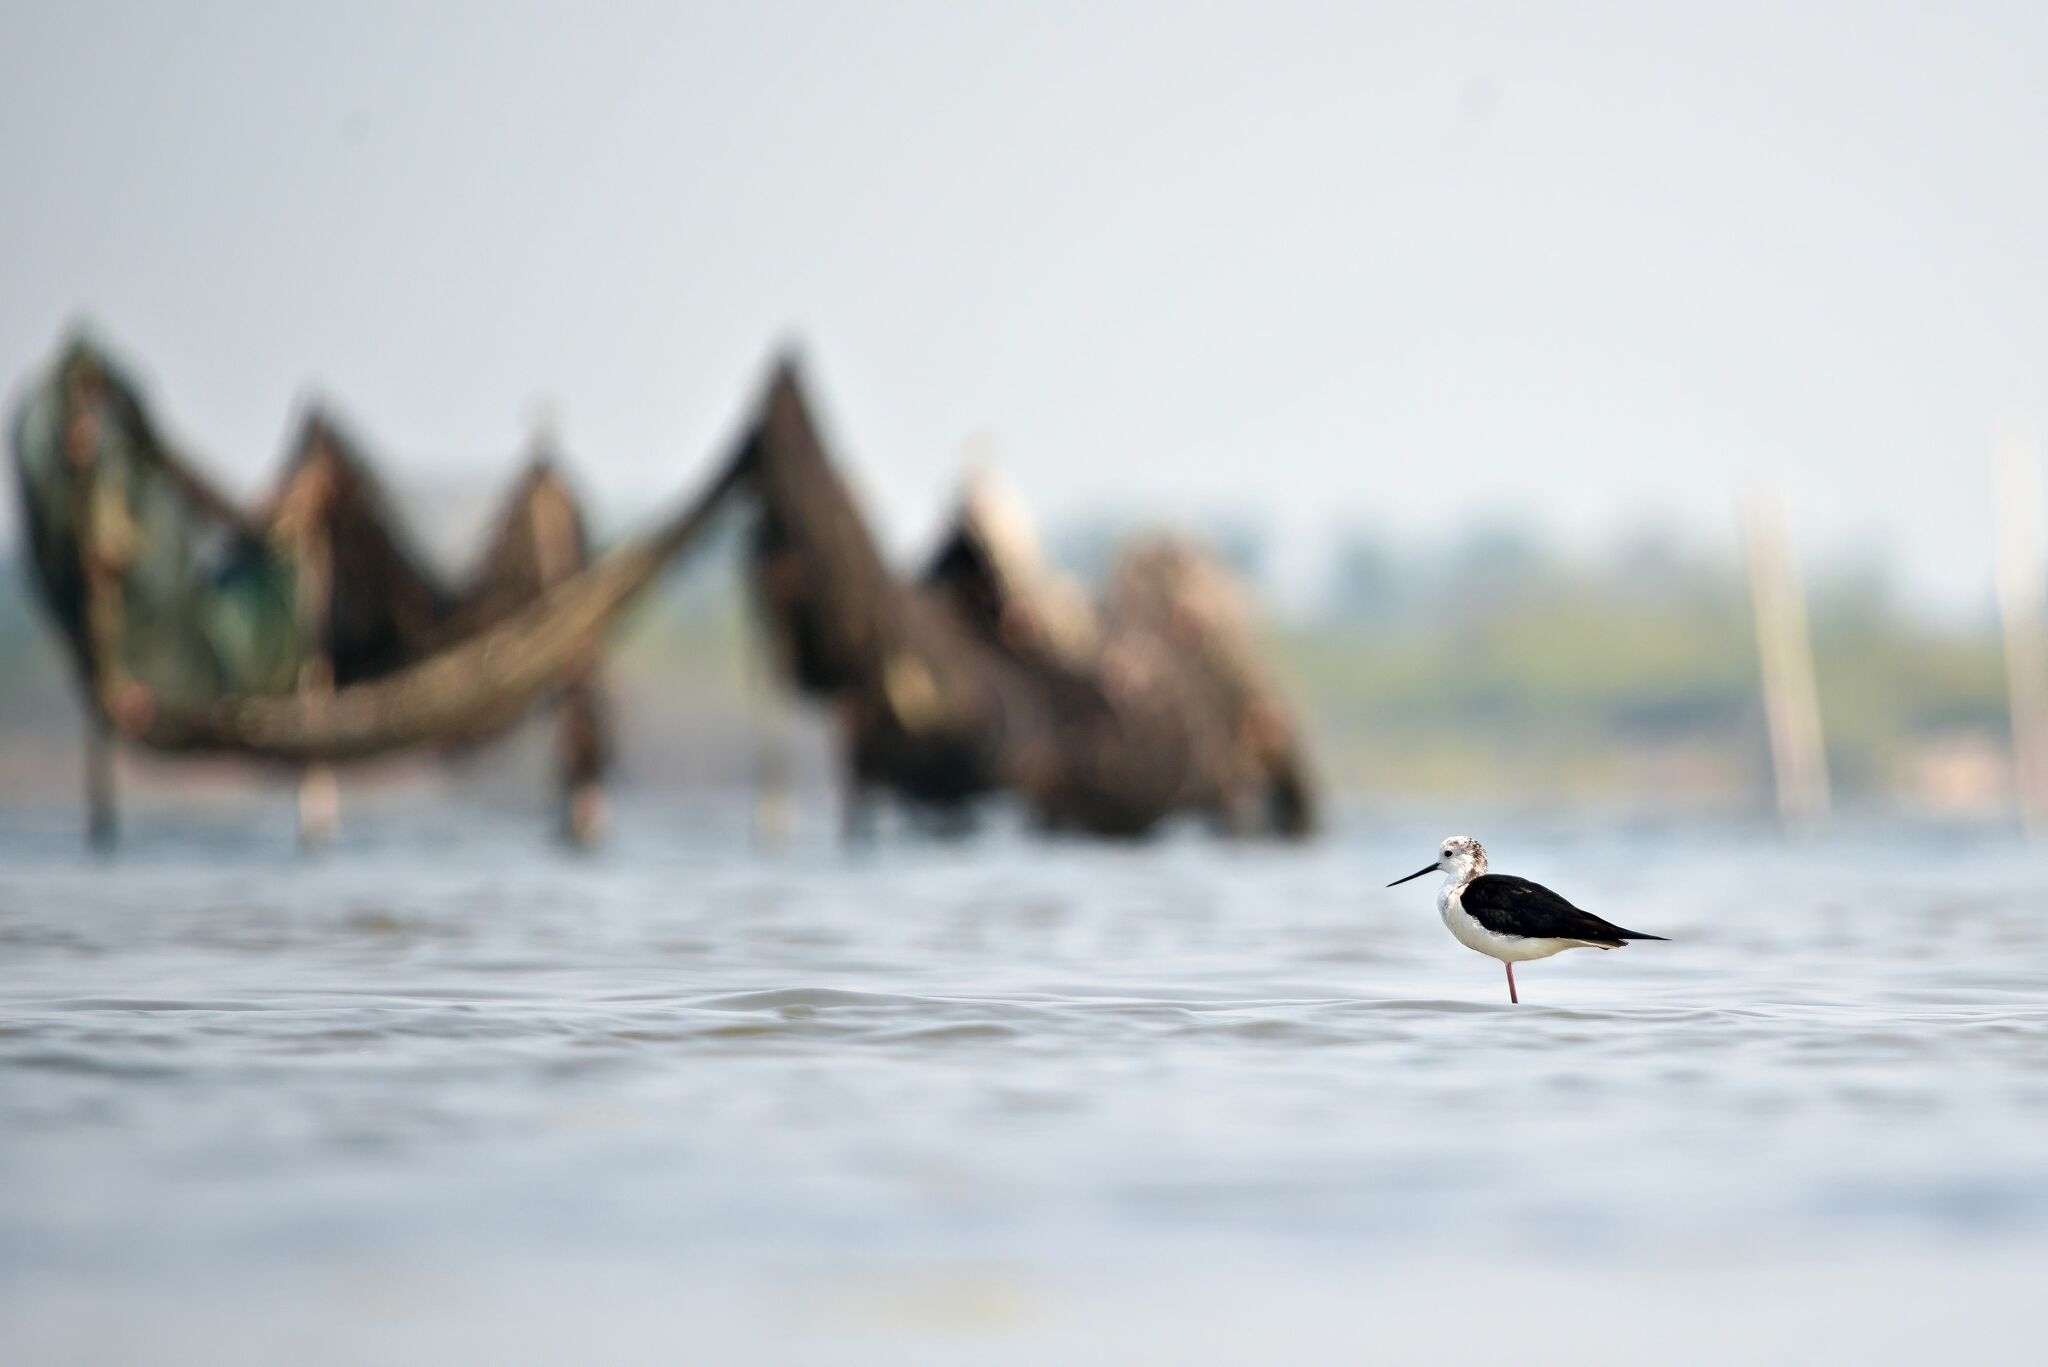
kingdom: Animalia
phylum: Chordata
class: Aves
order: Charadriiformes
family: Recurvirostridae
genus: Himantopus
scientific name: Himantopus himantopus
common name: Black-winged stilt
